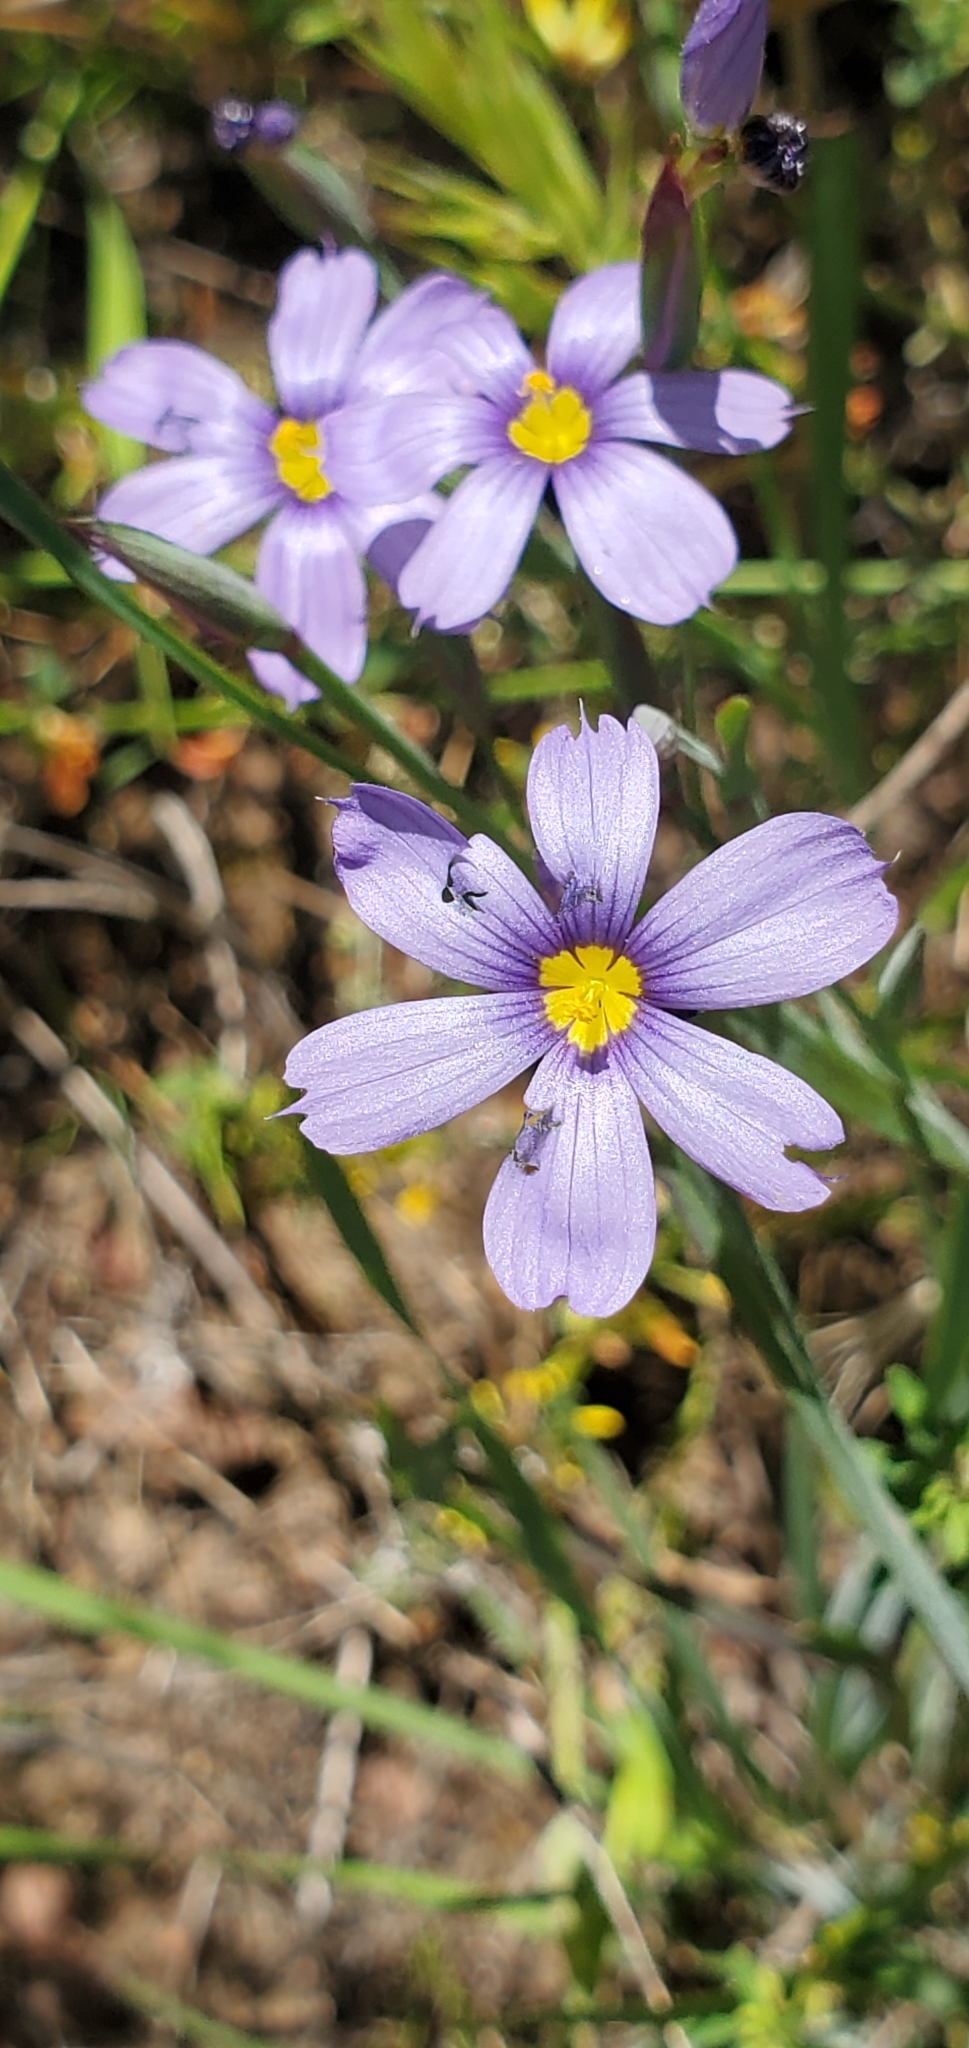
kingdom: Plantae
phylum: Tracheophyta
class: Liliopsida
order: Asparagales
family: Iridaceae
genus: Sisyrinchium
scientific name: Sisyrinchium bellum
